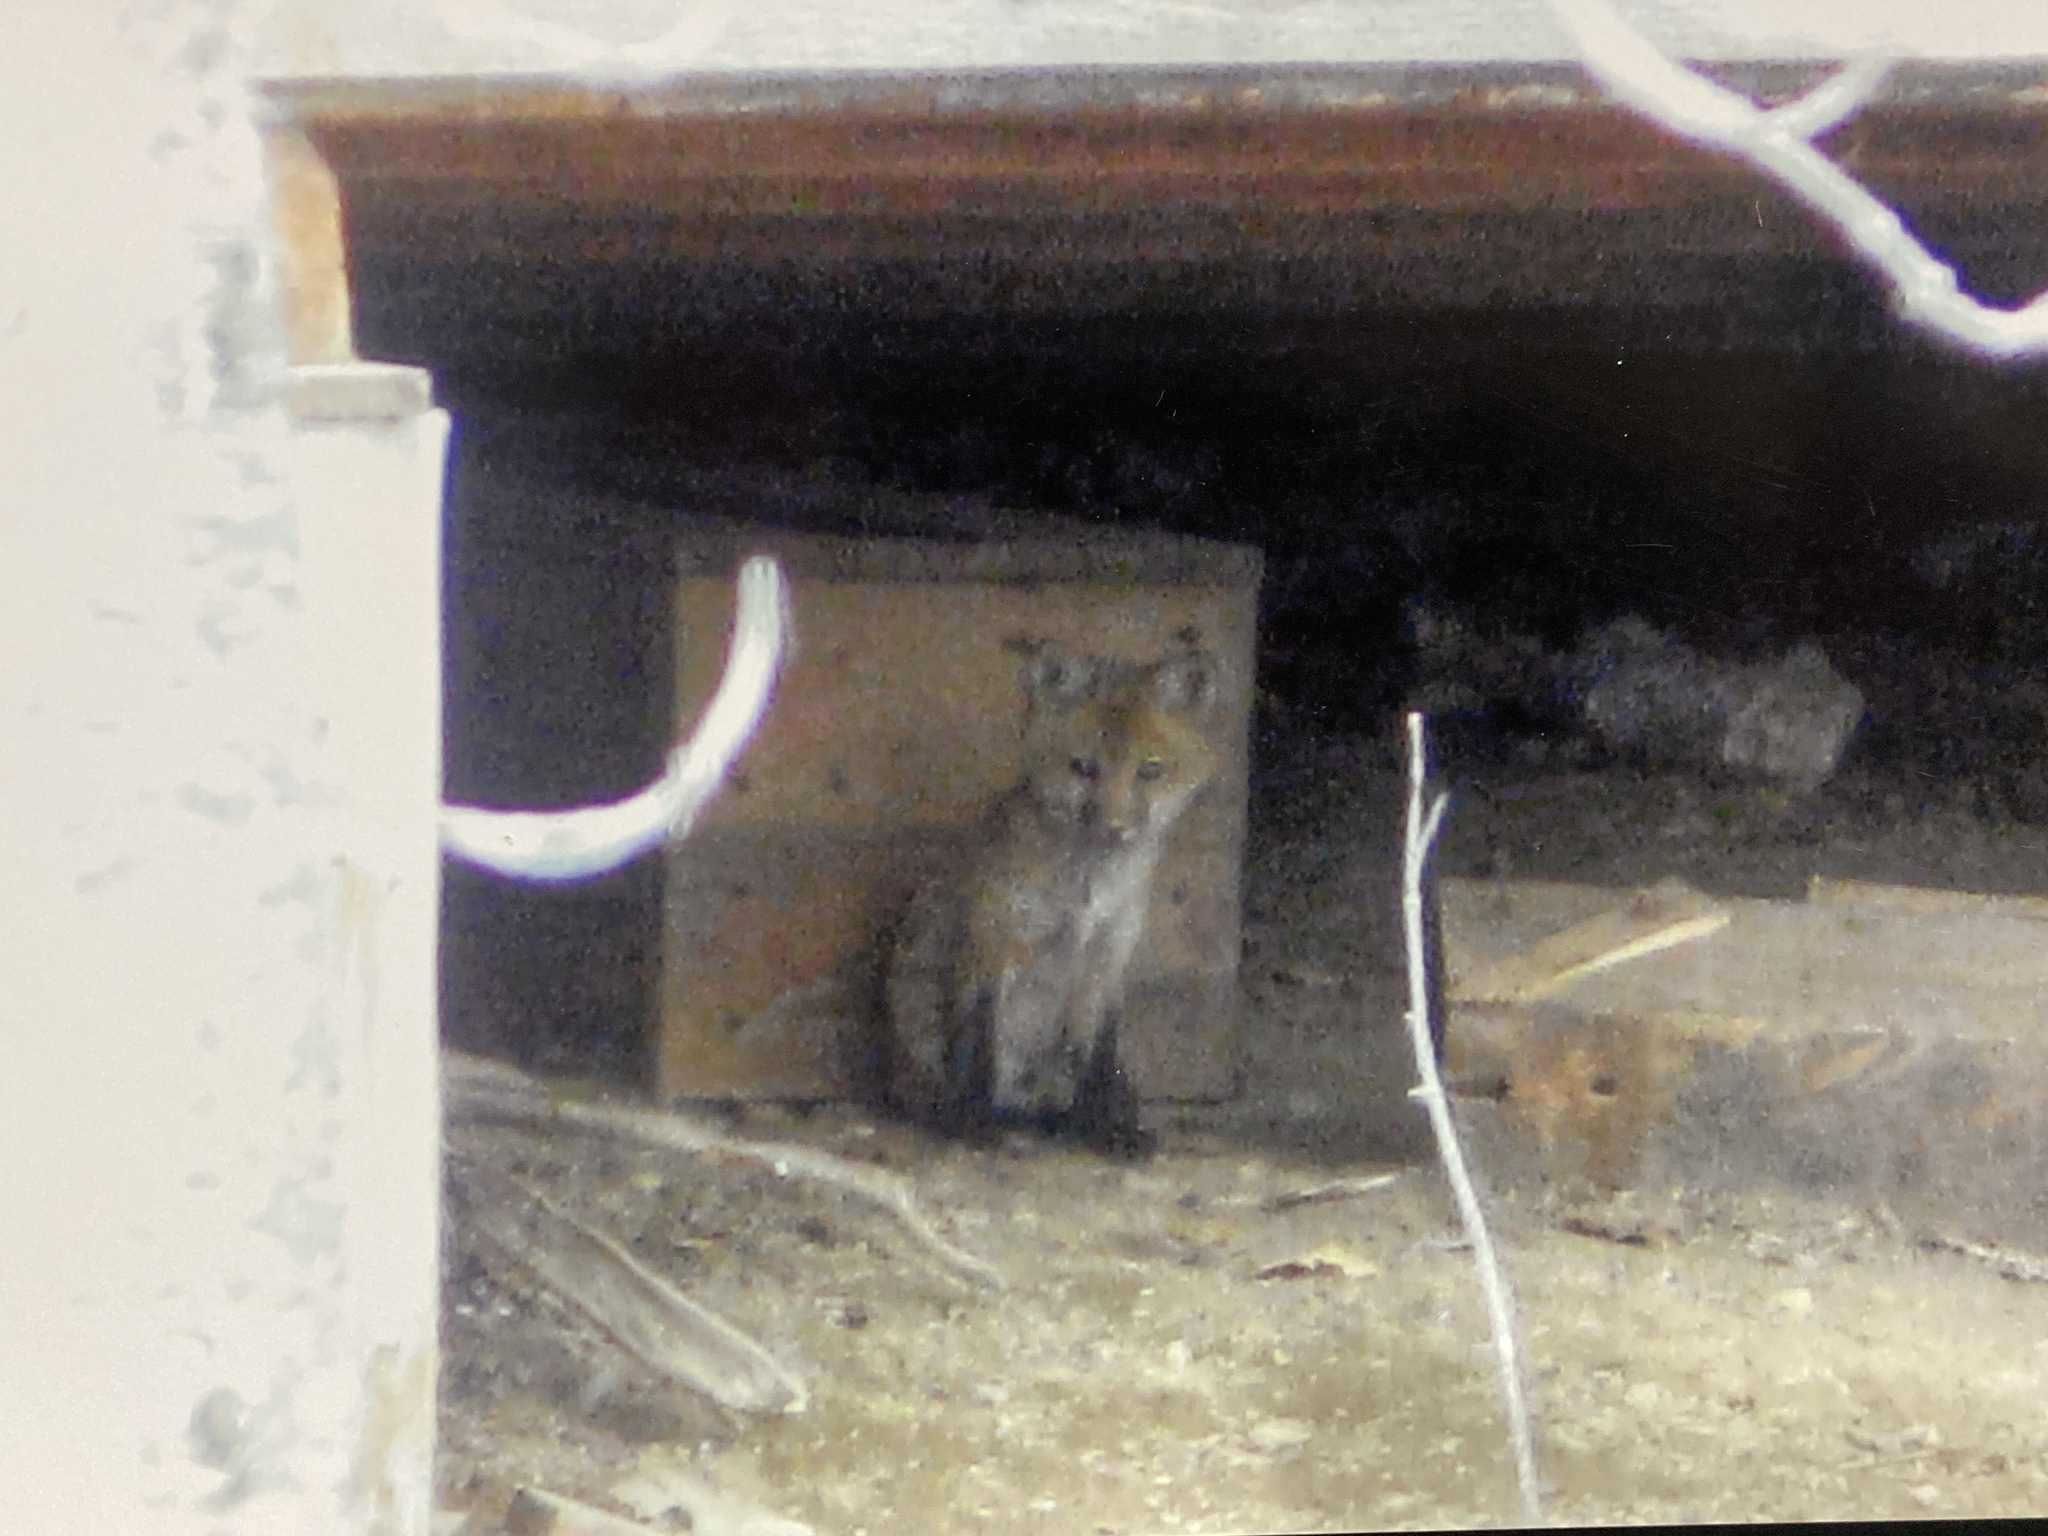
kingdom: Animalia
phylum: Chordata
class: Mammalia
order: Carnivora
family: Canidae
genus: Vulpes
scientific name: Vulpes vulpes
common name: Red fox
